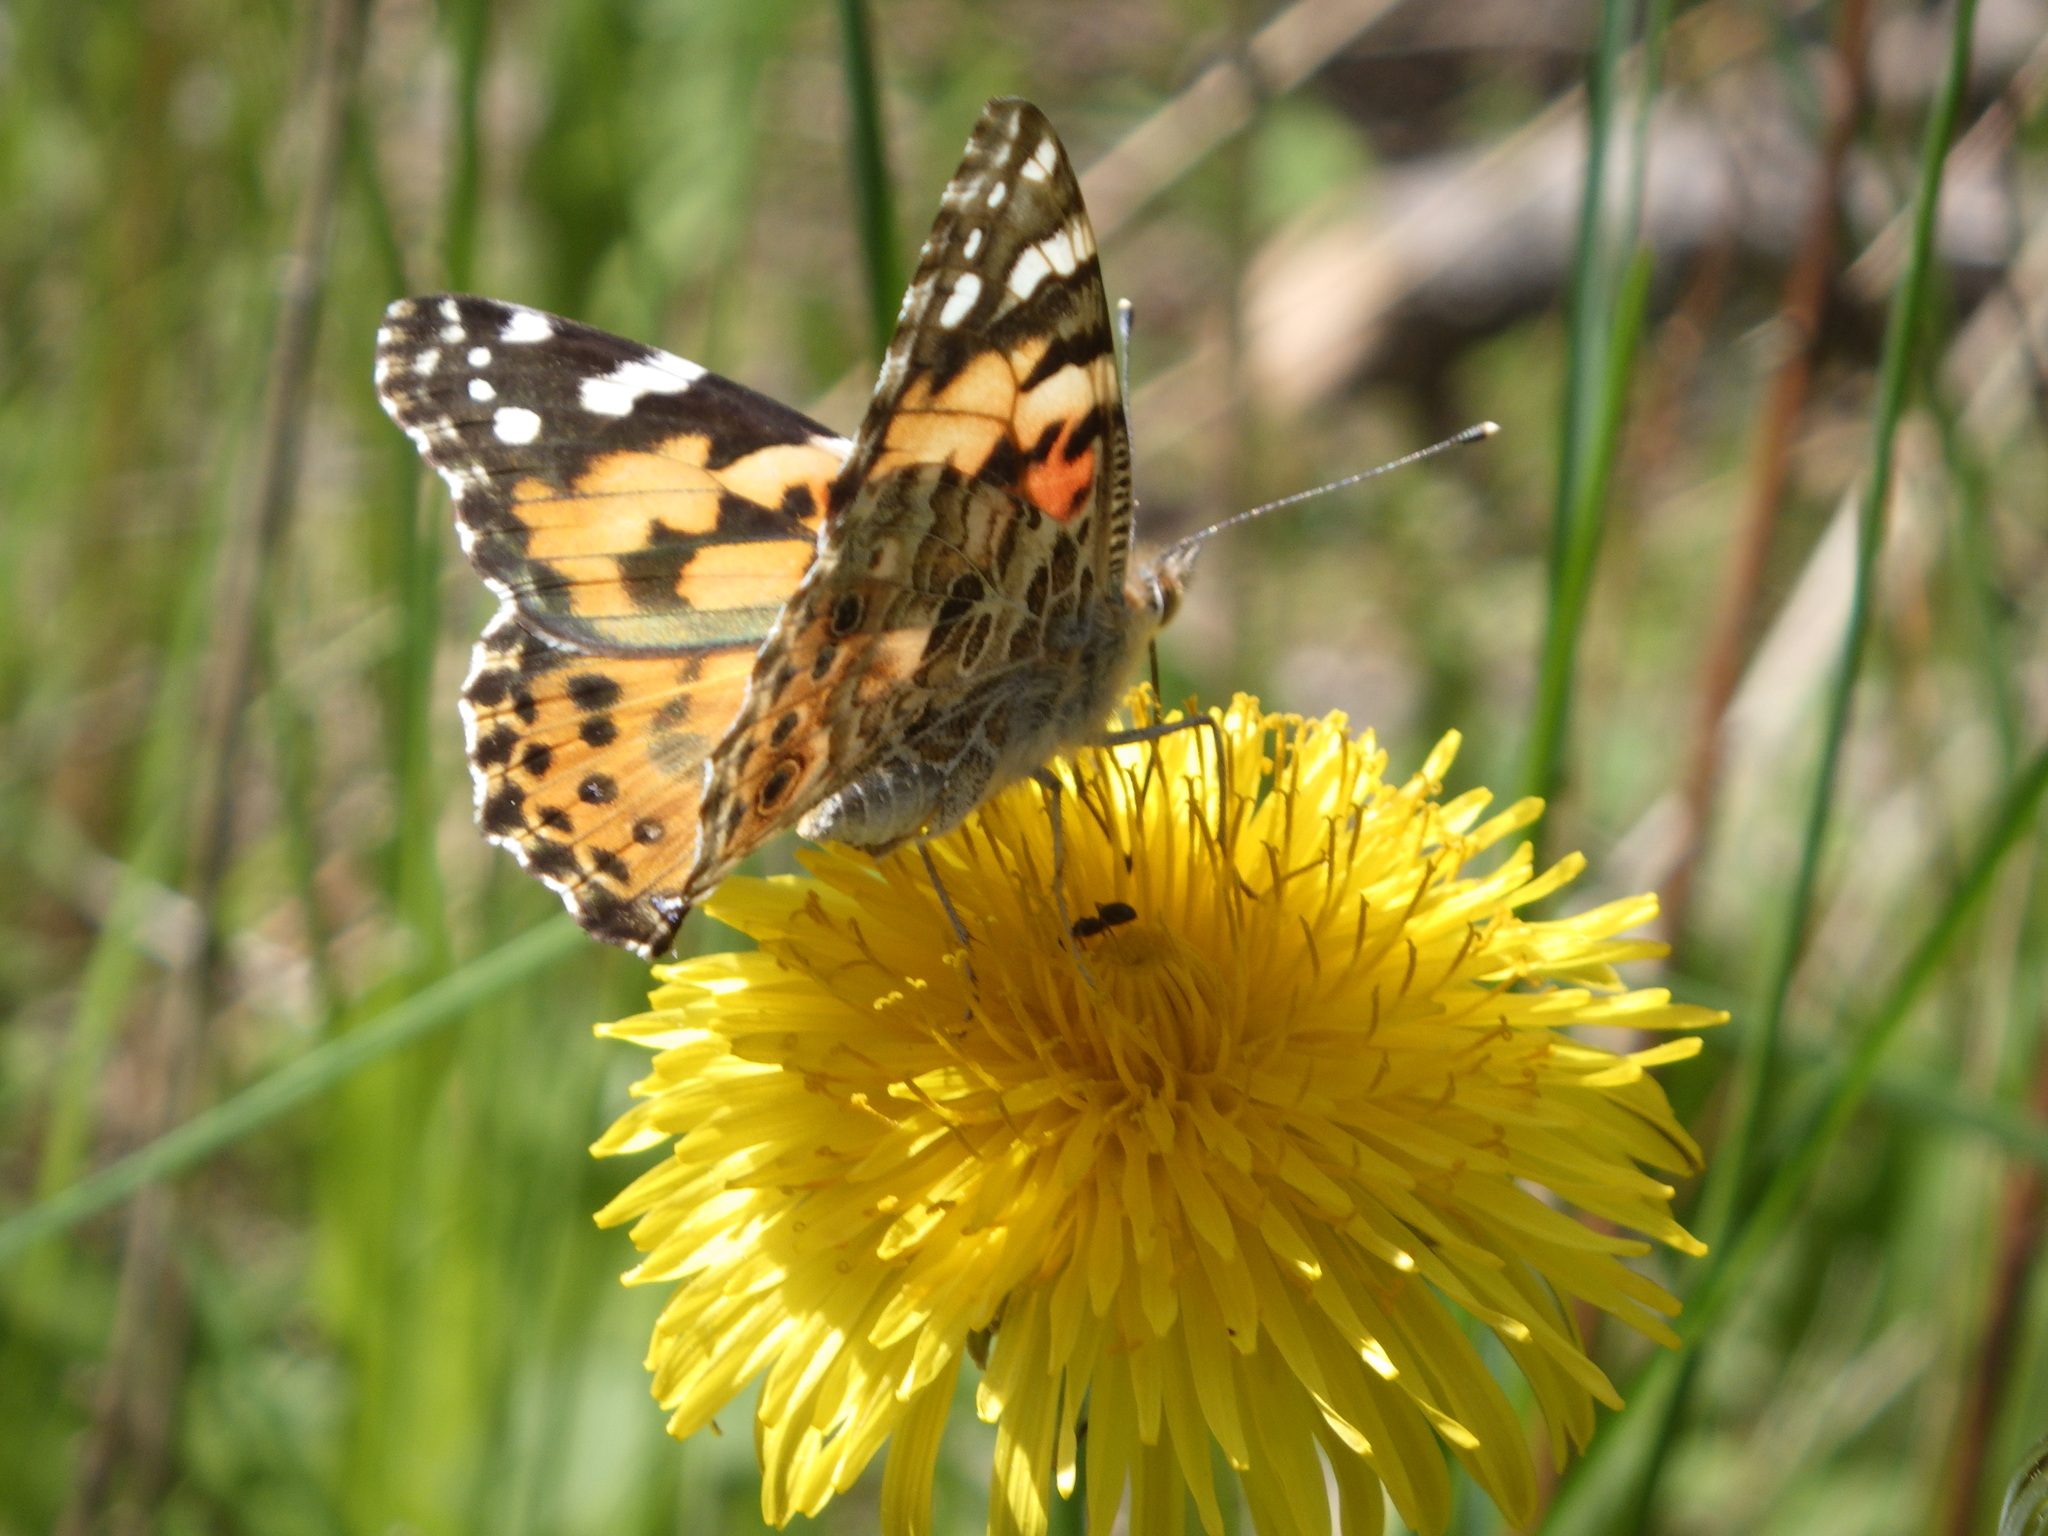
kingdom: Animalia
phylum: Arthropoda
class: Insecta
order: Lepidoptera
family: Nymphalidae
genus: Vanessa
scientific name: Vanessa cardui
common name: Painted lady
